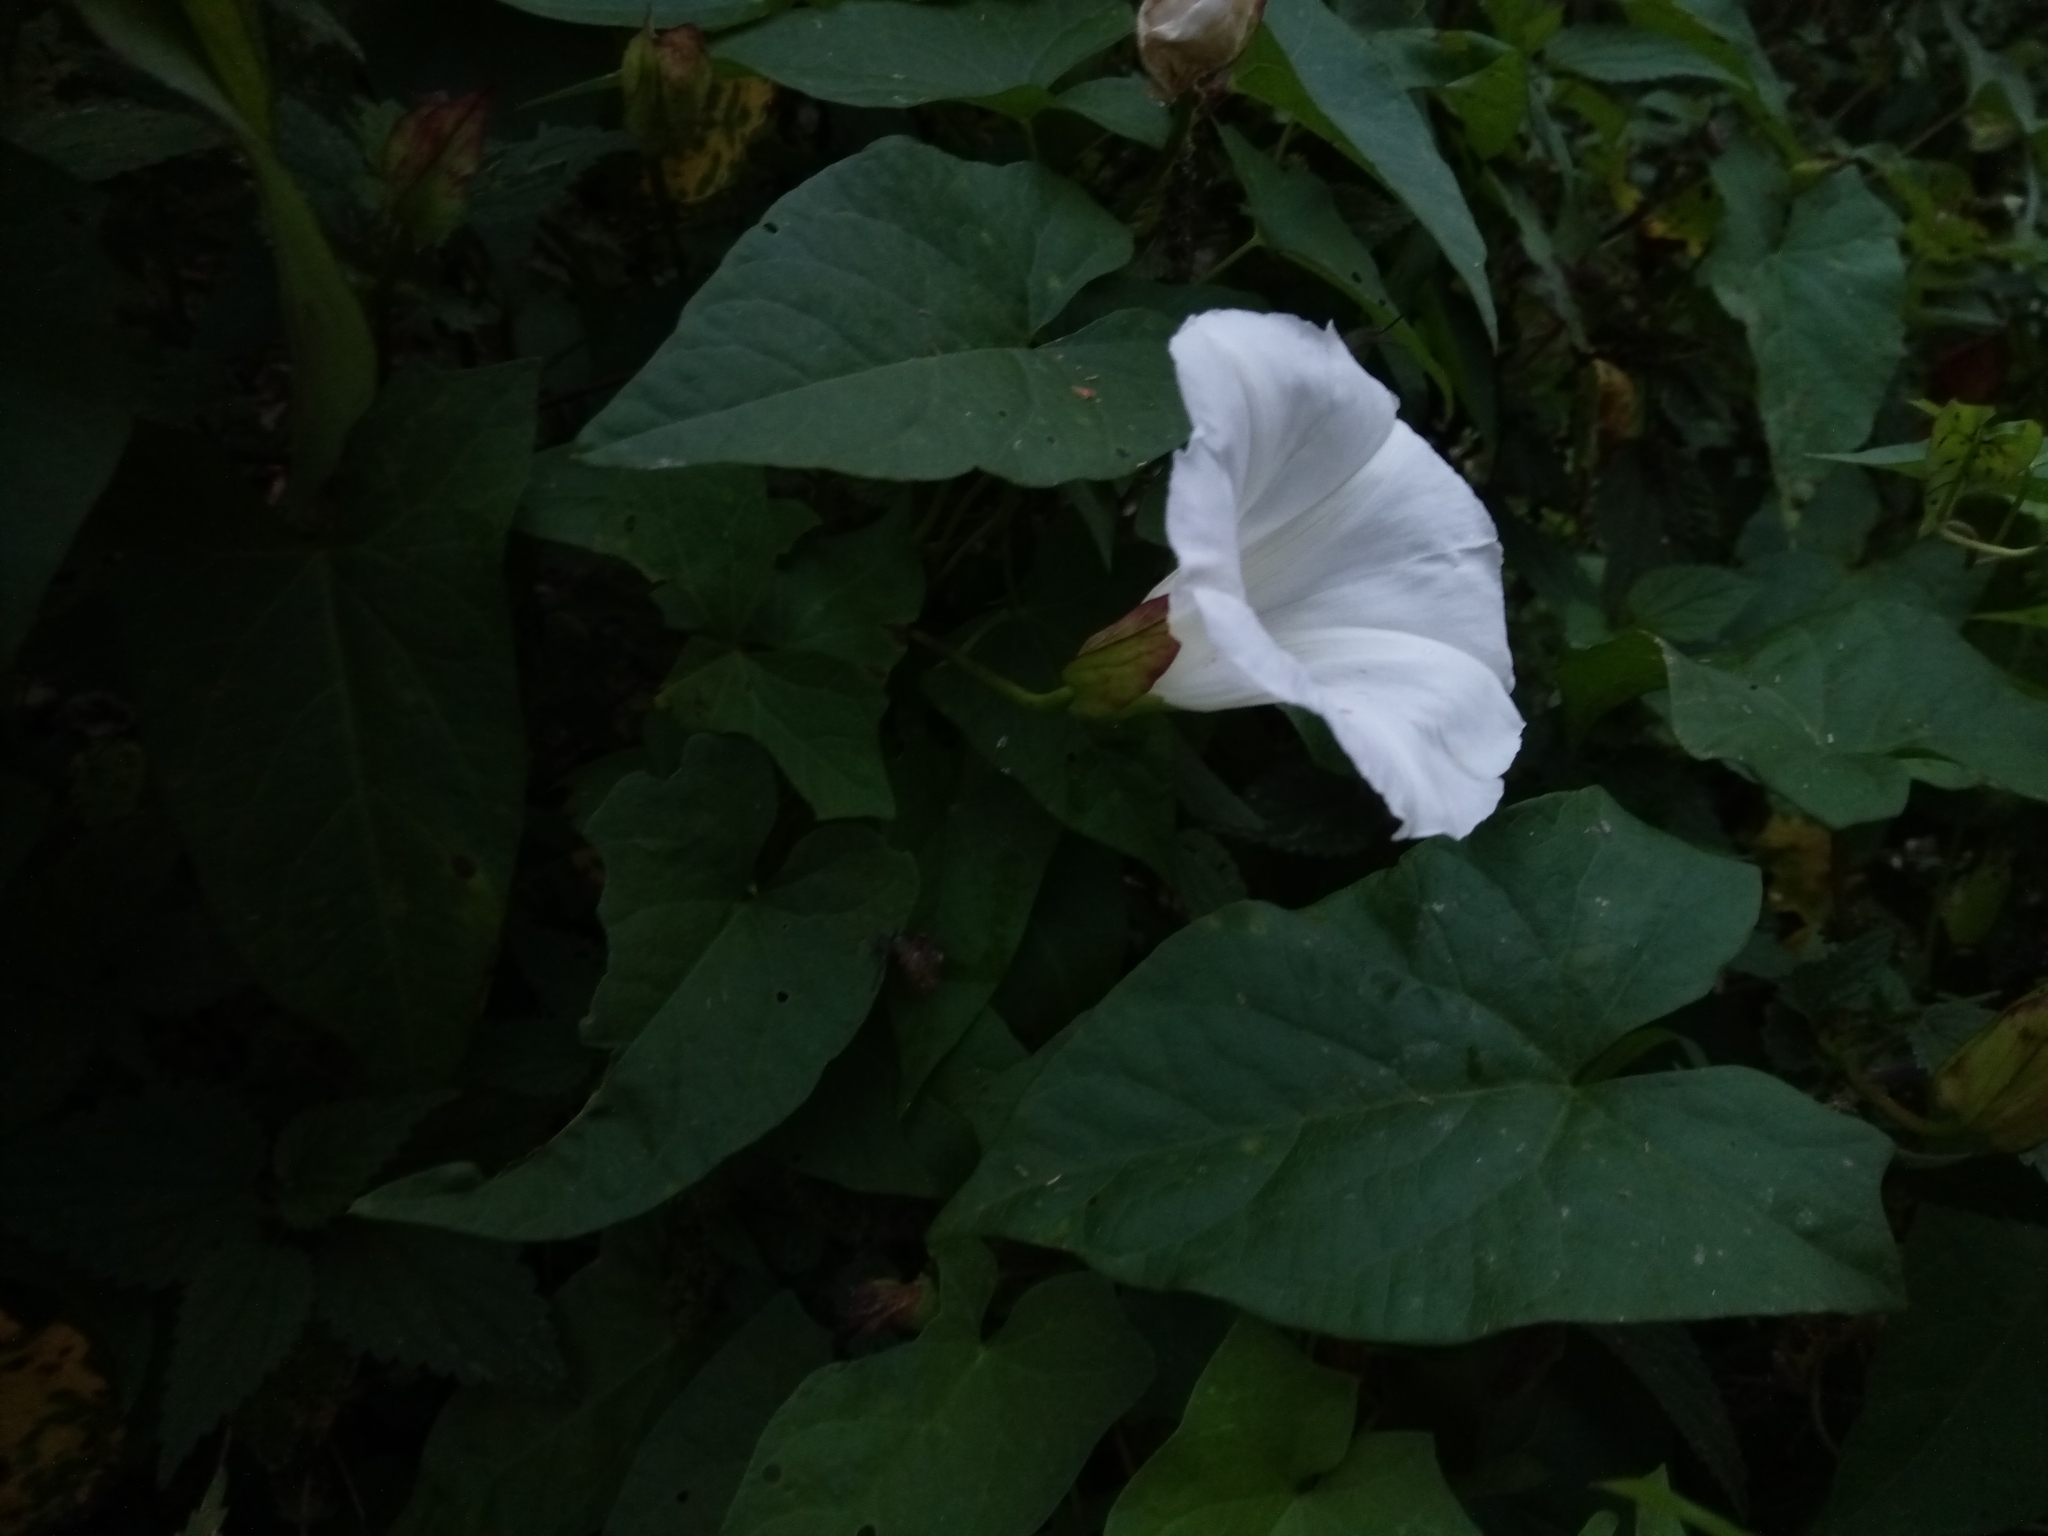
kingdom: Plantae
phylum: Tracheophyta
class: Magnoliopsida
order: Solanales
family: Convolvulaceae
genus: Calystegia
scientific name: Calystegia sepium
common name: Hedge bindweed
